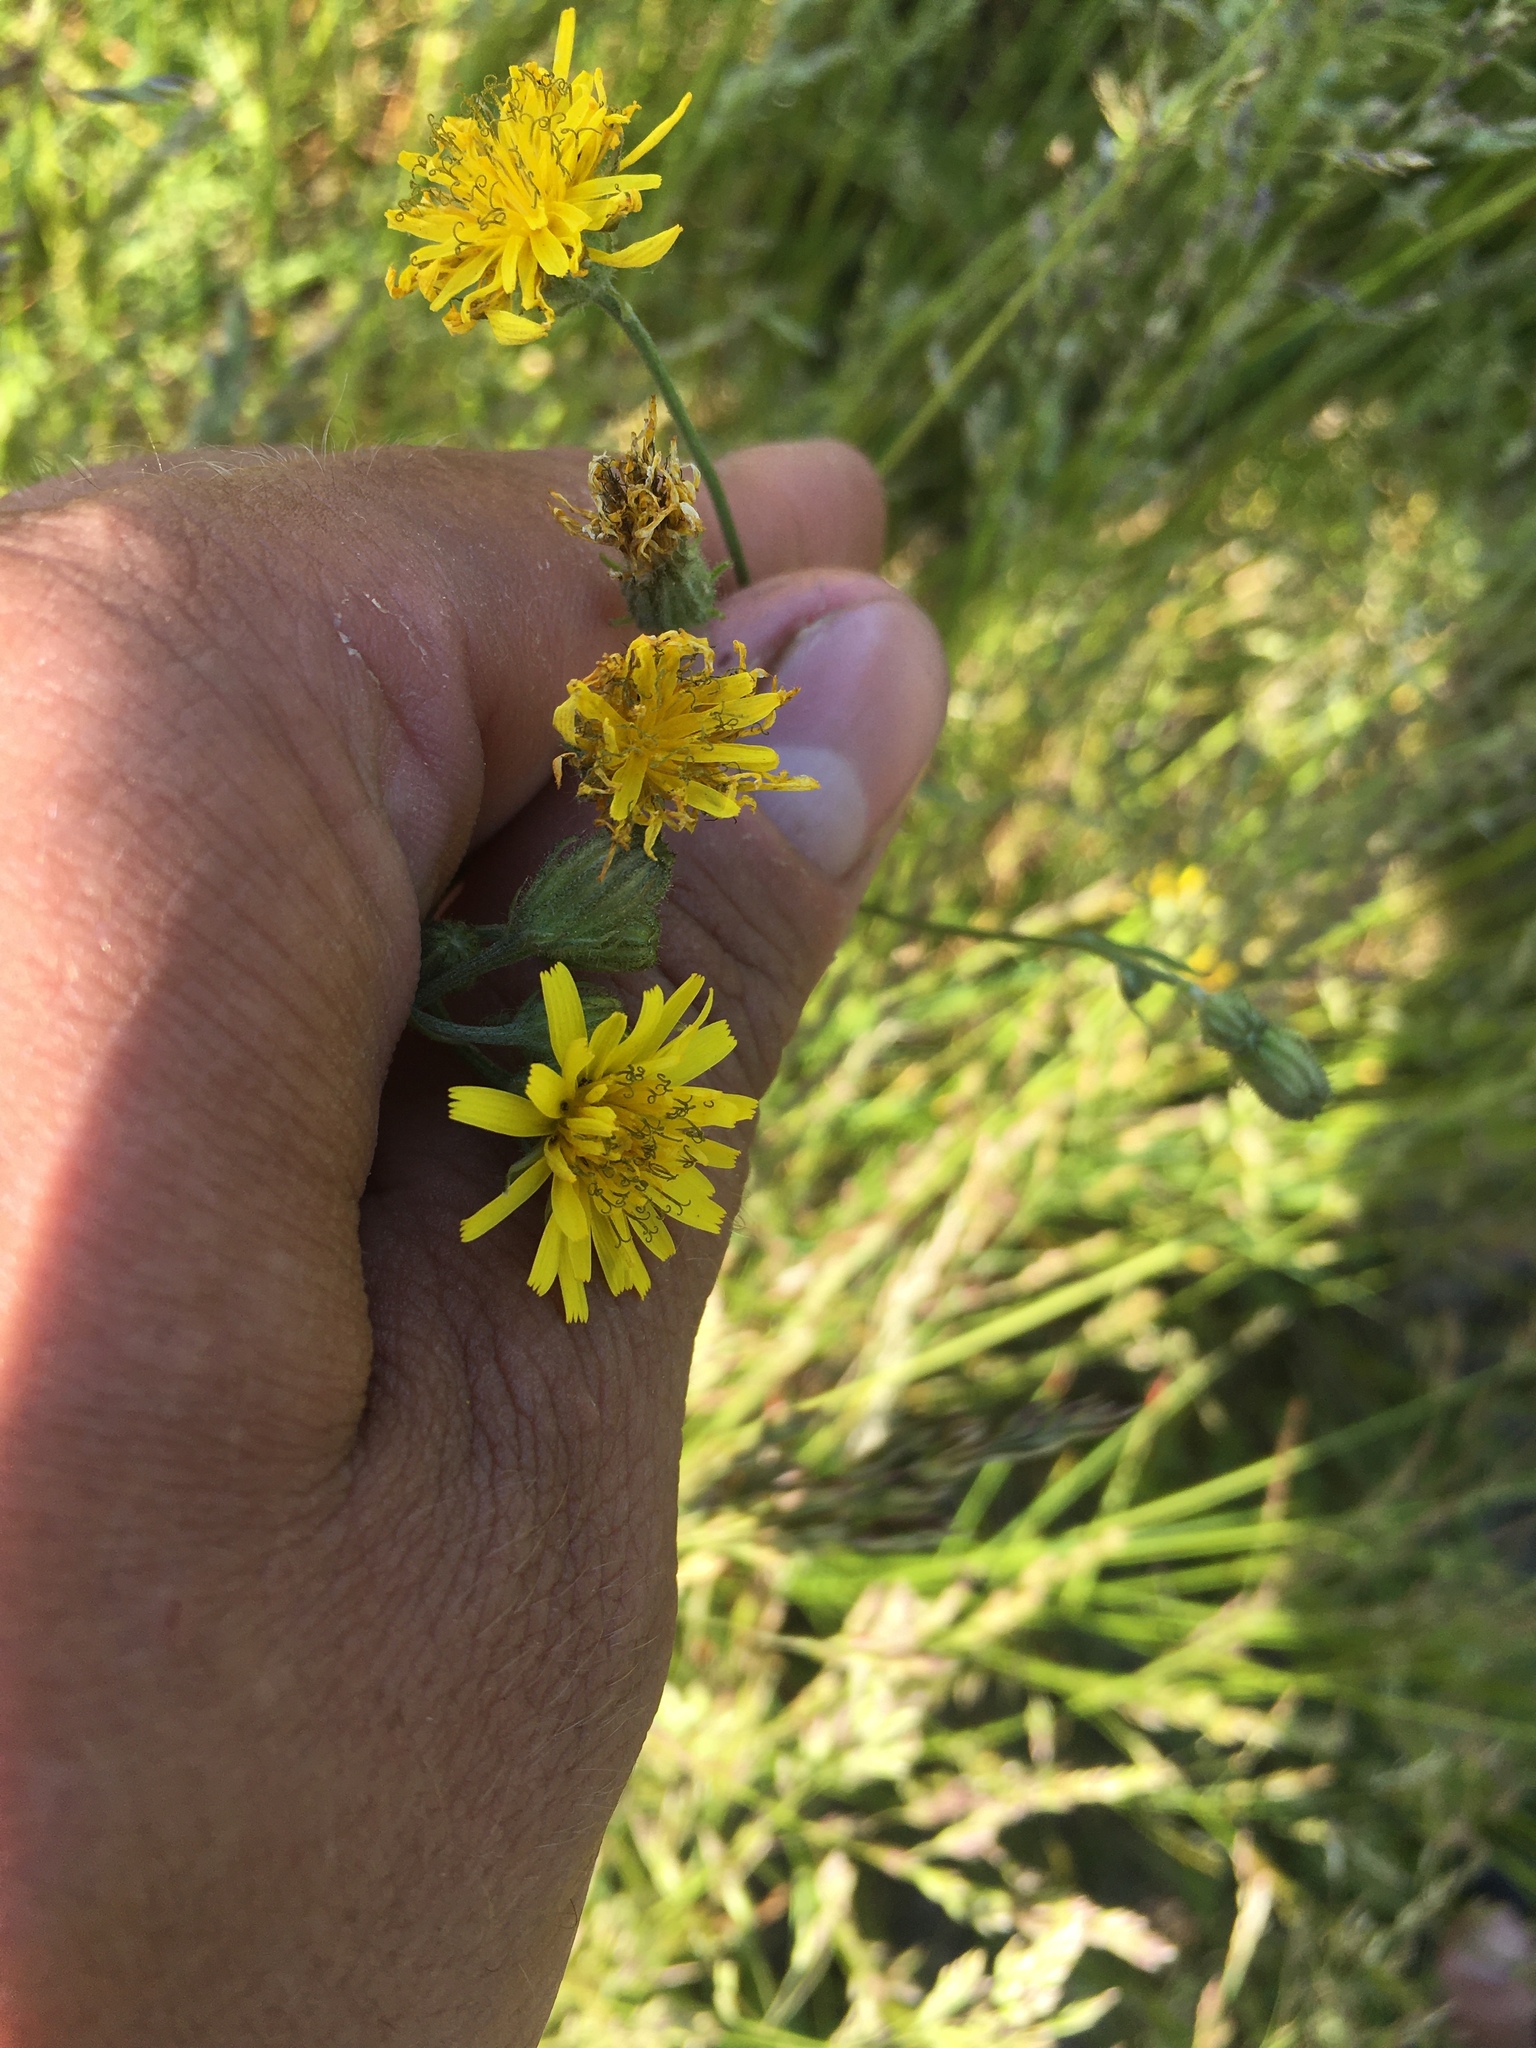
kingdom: Plantae
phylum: Tracheophyta
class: Magnoliopsida
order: Asterales
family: Asteraceae
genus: Crepis
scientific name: Crepis tectorum
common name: Narrow-leaved hawk's-beard
